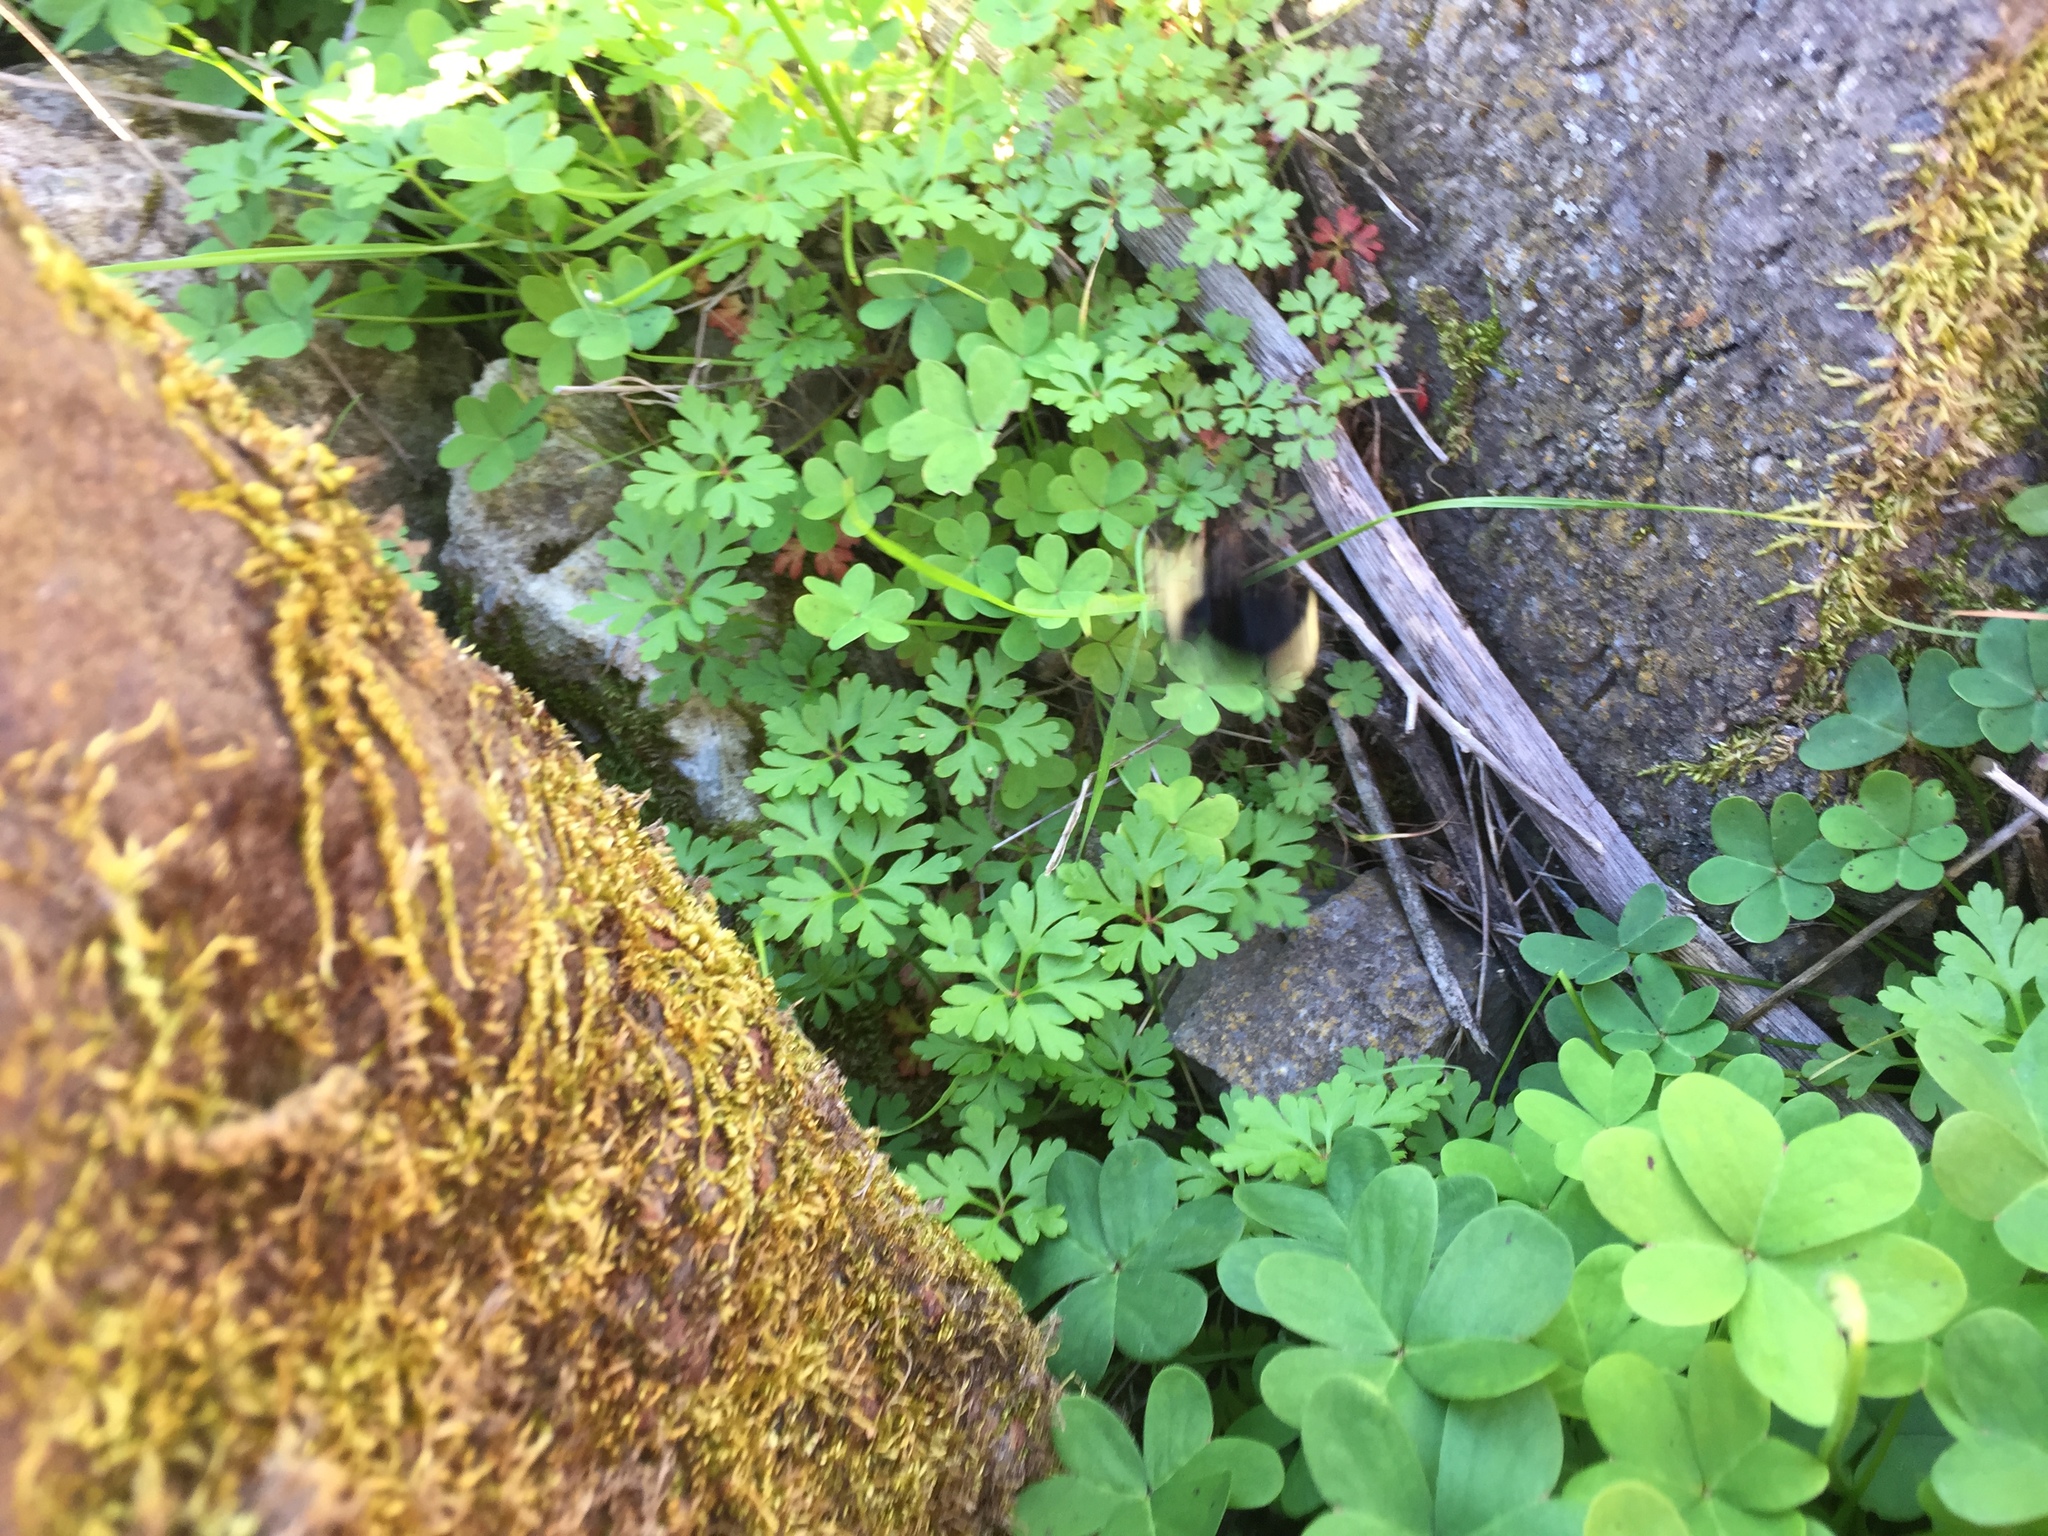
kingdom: Plantae
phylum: Tracheophyta
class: Magnoliopsida
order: Geraniales
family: Geraniaceae
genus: Geranium
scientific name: Geranium
